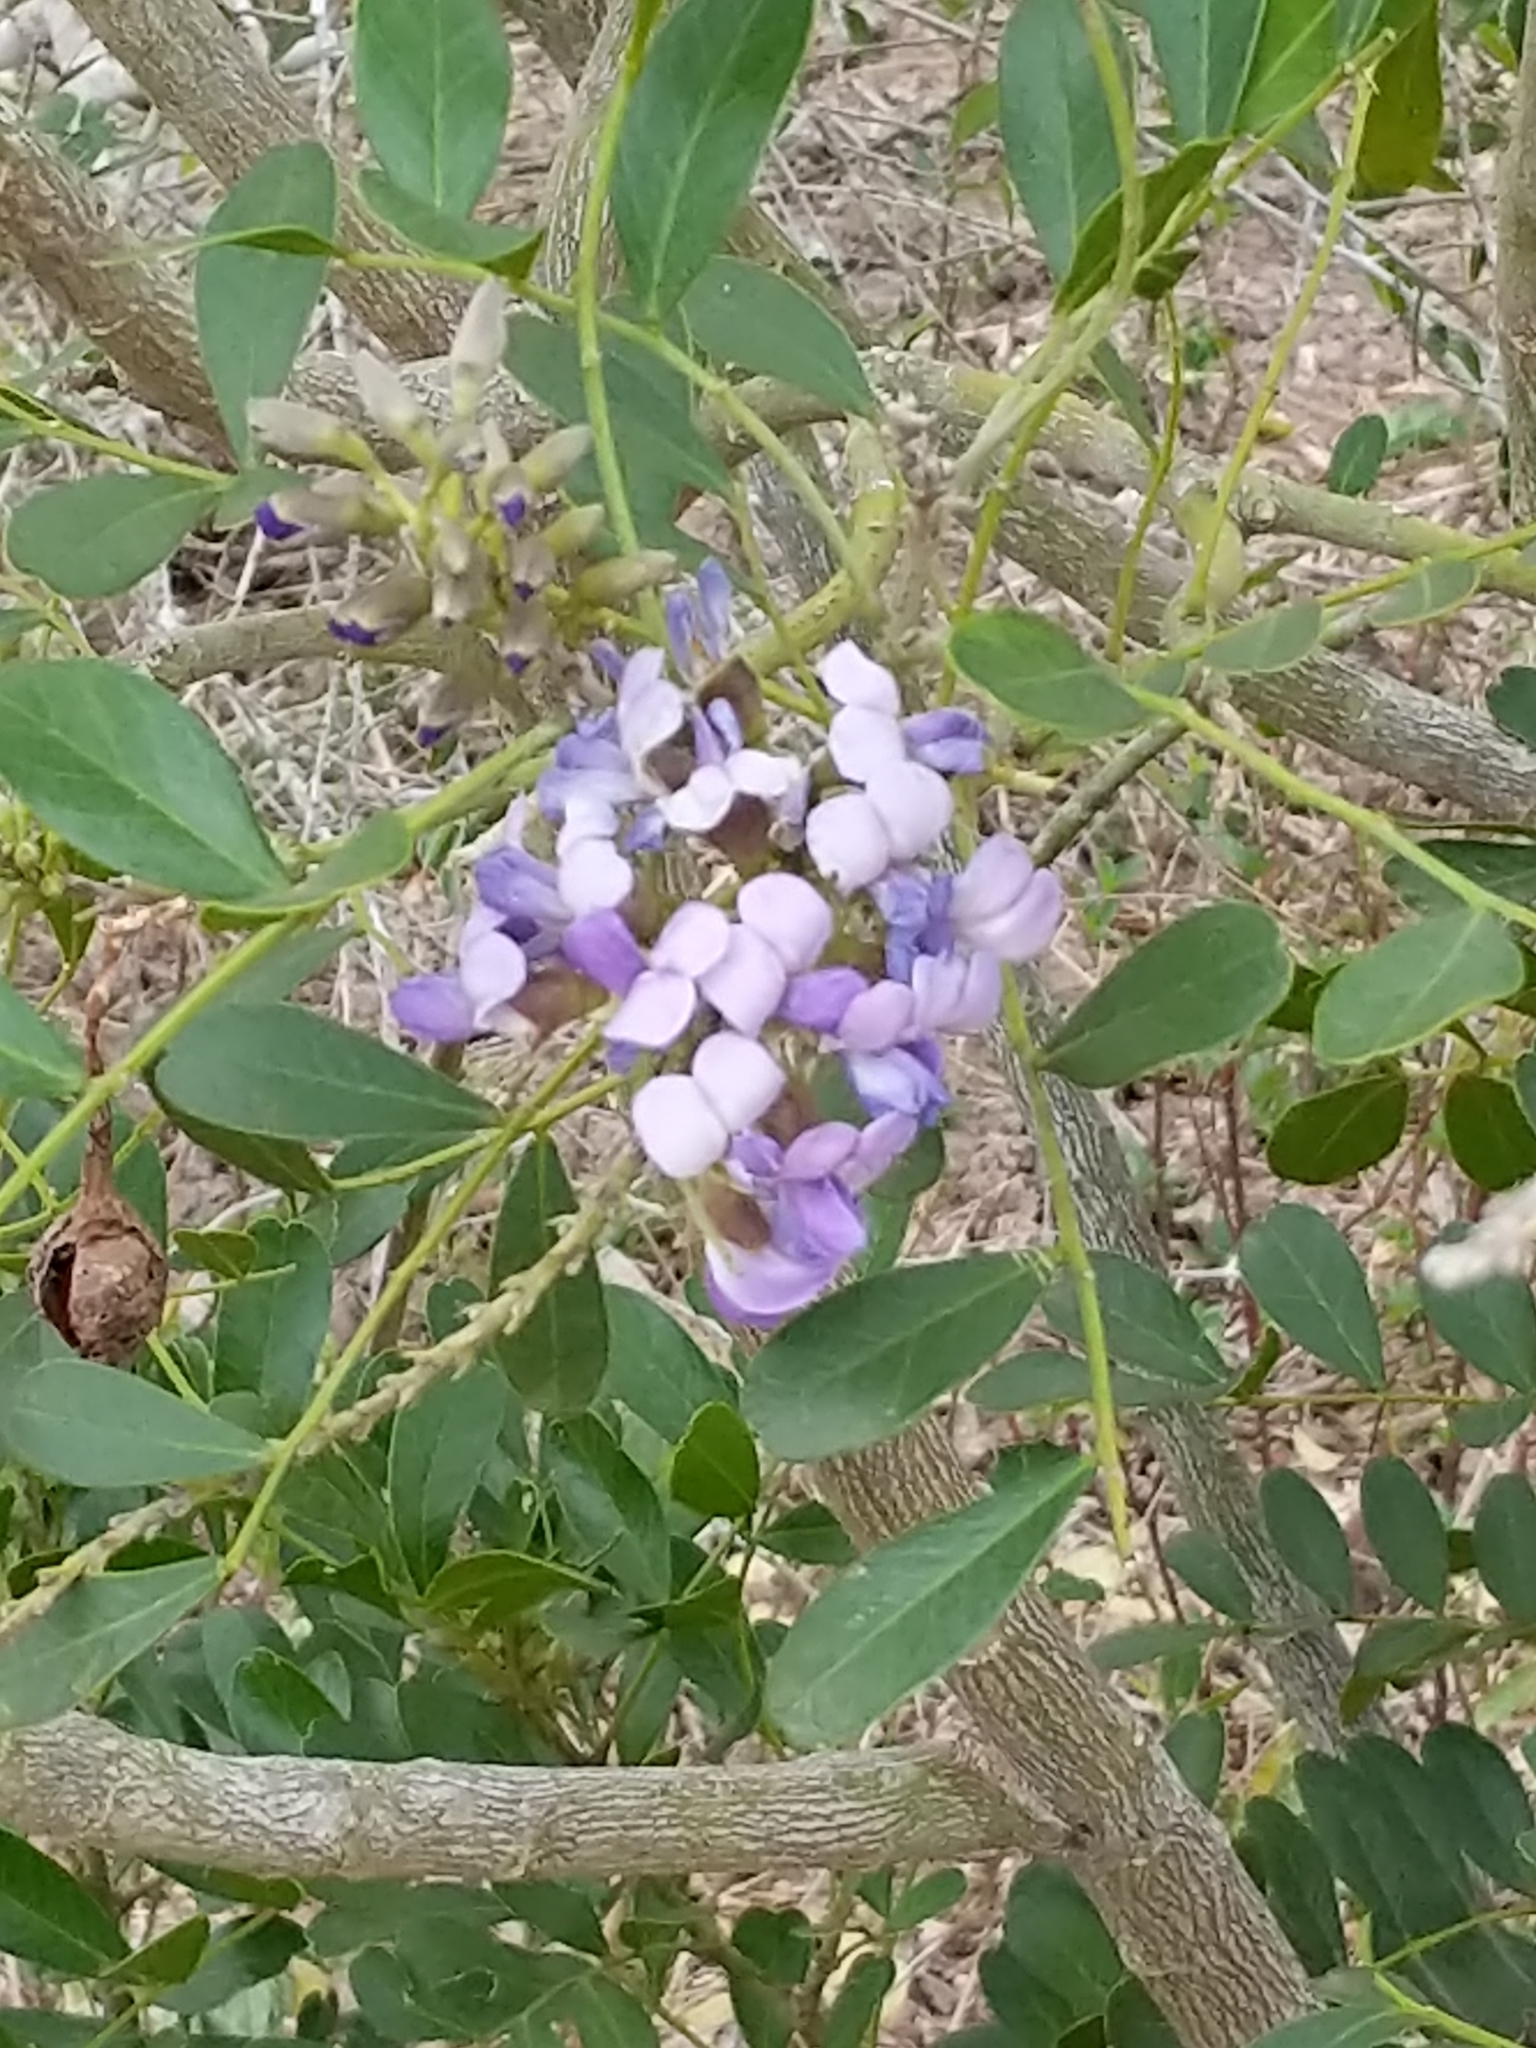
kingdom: Plantae
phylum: Tracheophyta
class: Magnoliopsida
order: Fabales
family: Fabaceae
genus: Dermatophyllum
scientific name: Dermatophyllum secundiflorum
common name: Texas-mountain-laurel
